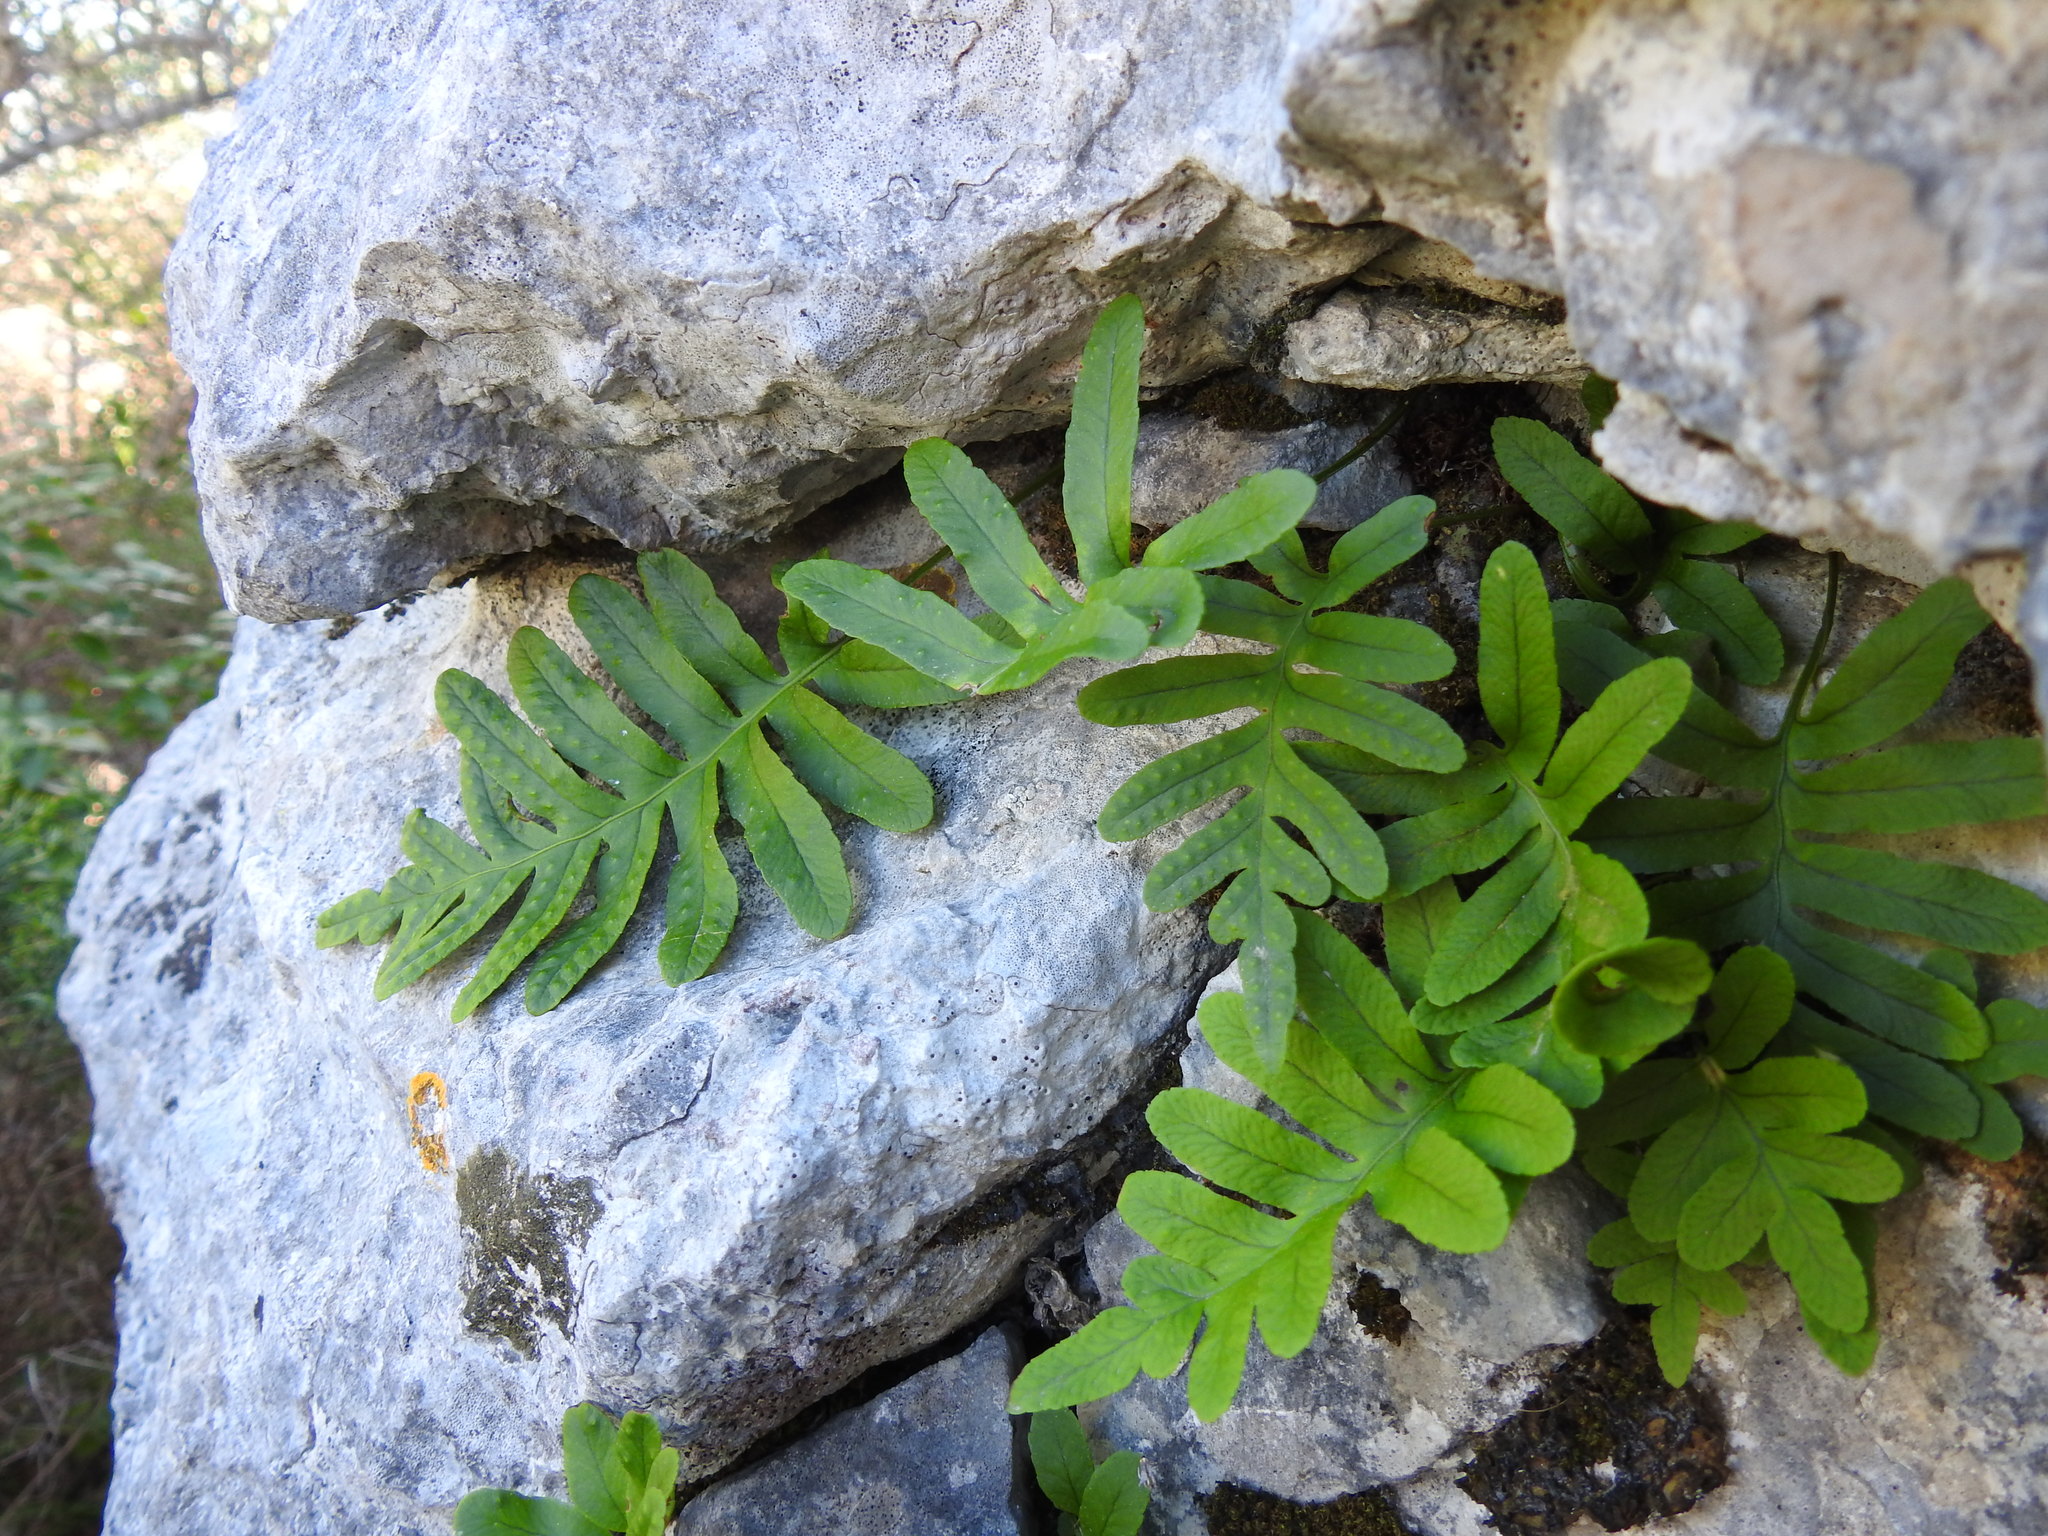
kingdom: Plantae
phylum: Tracheophyta
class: Polypodiopsida
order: Polypodiales
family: Polypodiaceae
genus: Polypodium
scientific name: Polypodium cambricum
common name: Southern polypody
